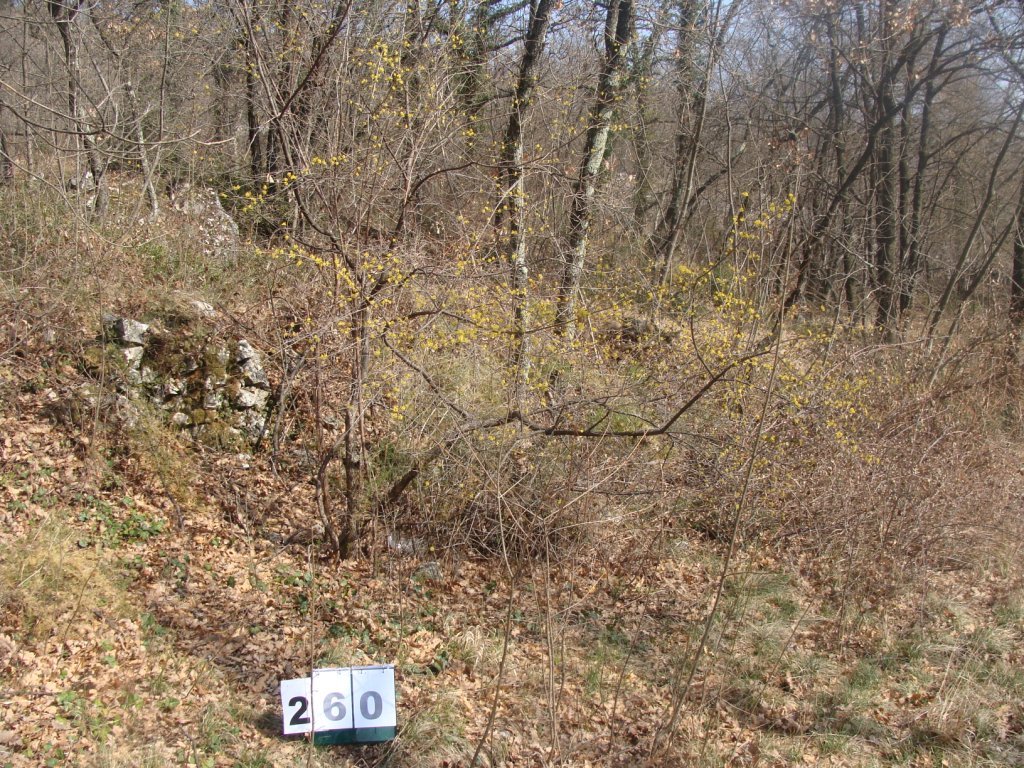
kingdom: Plantae
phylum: Tracheophyta
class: Magnoliopsida
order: Cornales
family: Cornaceae
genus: Cornus
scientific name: Cornus mas
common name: Cornelian-cherry
